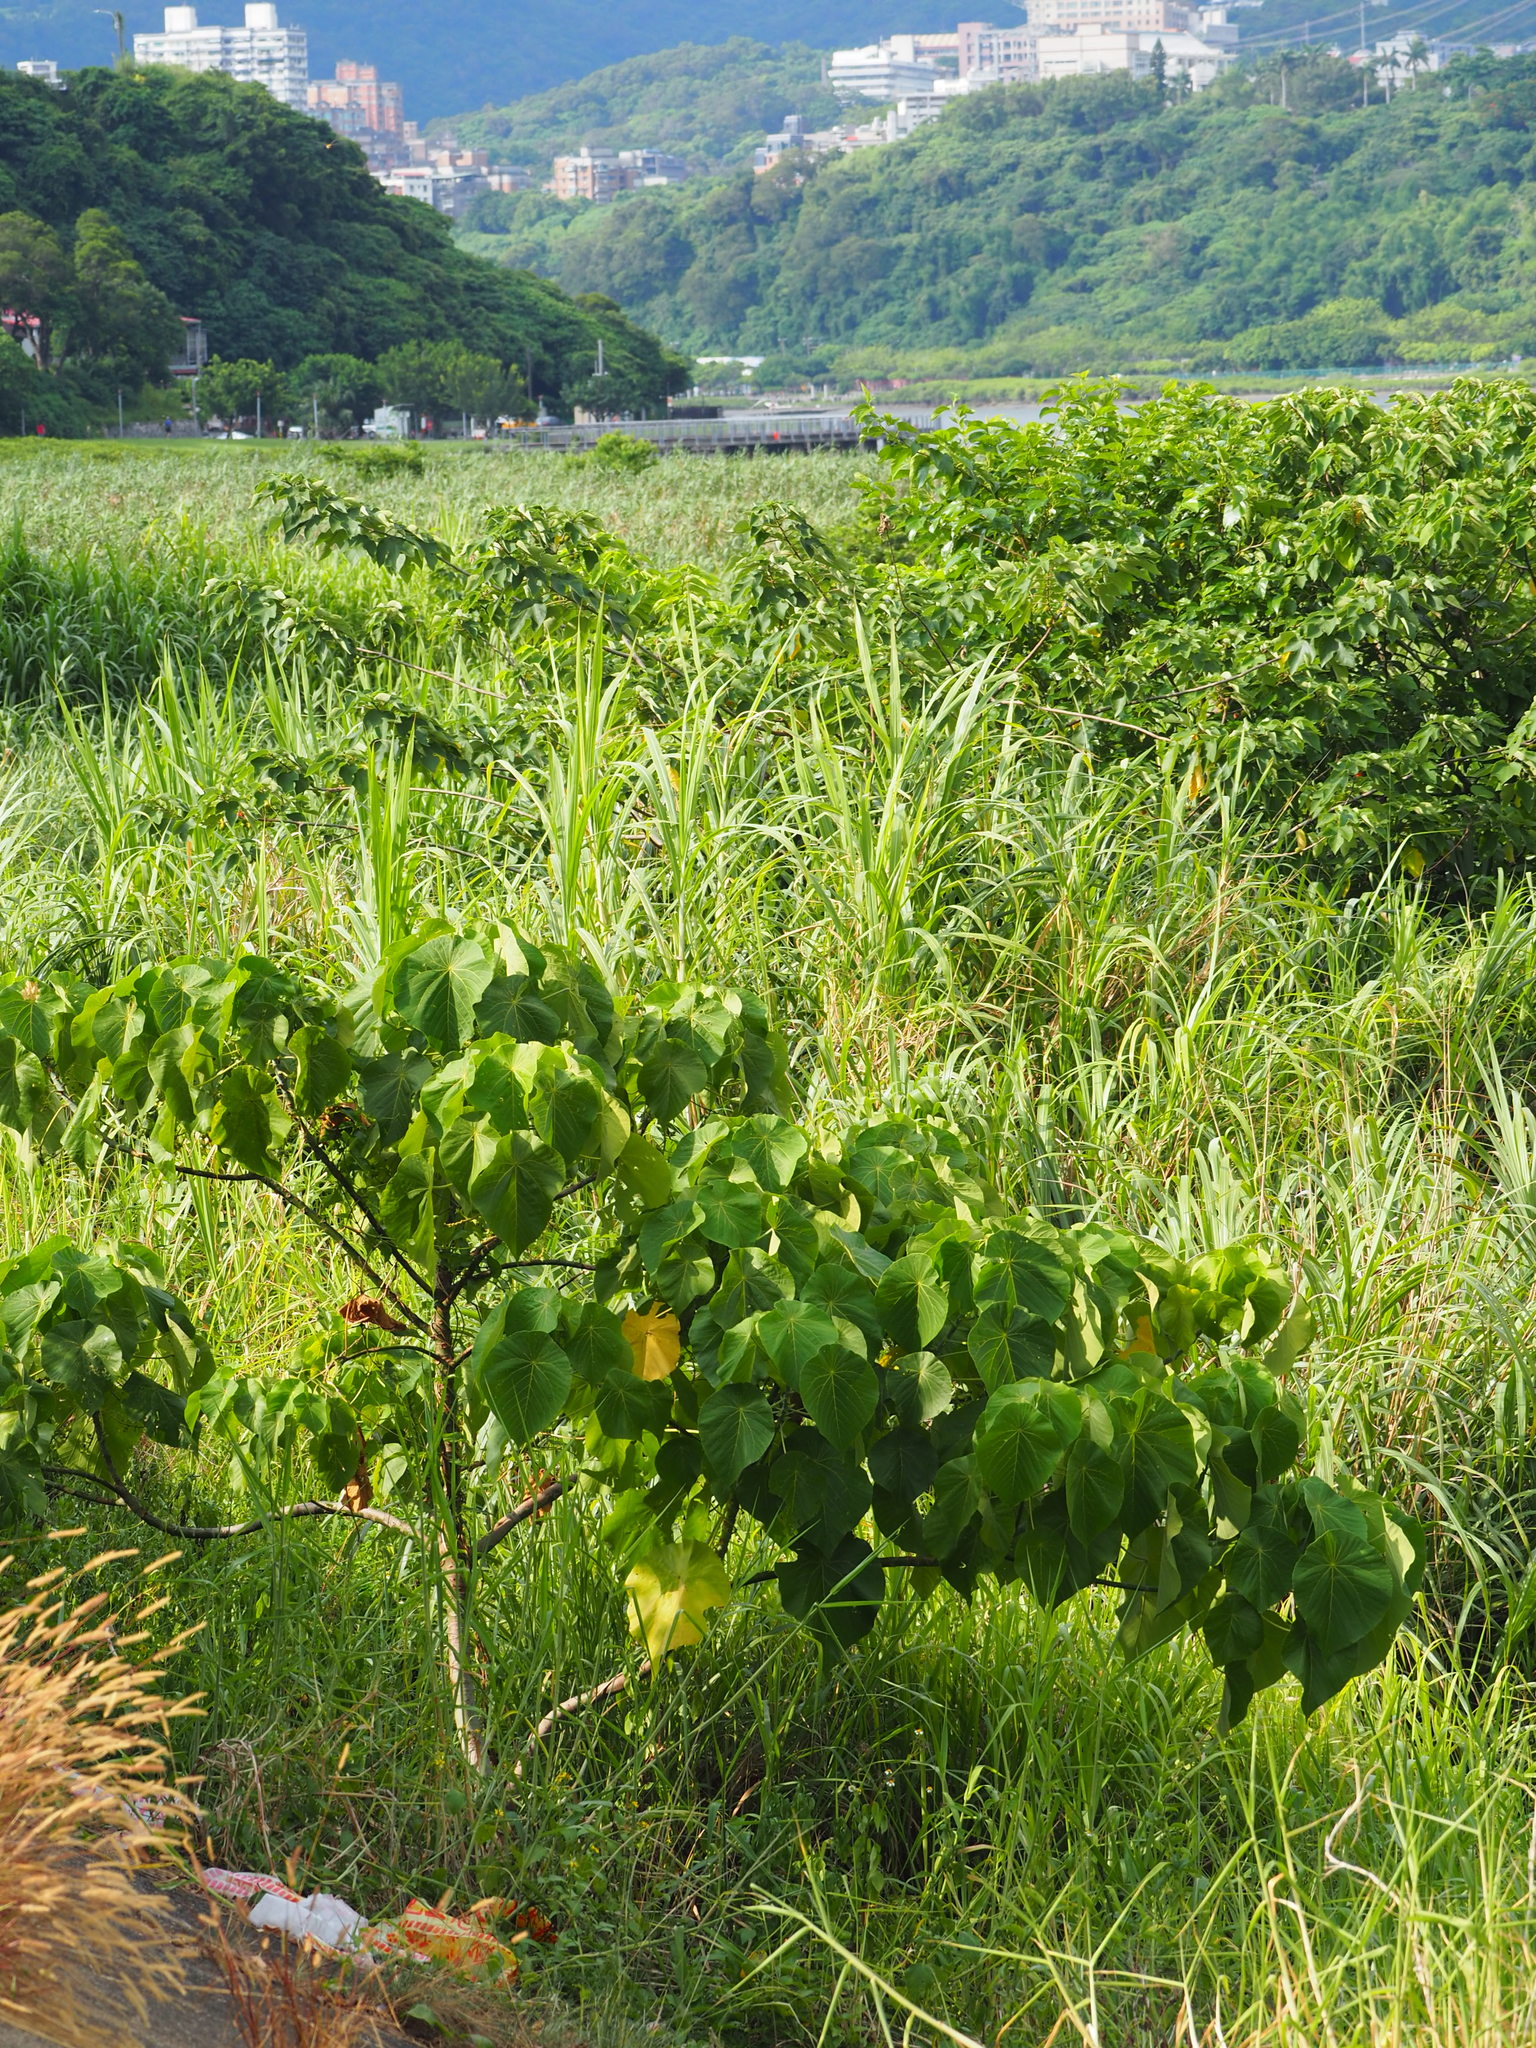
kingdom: Plantae
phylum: Tracheophyta
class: Magnoliopsida
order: Malpighiales
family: Euphorbiaceae
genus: Macaranga
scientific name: Macaranga tanarius
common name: Parasol leaf tree
